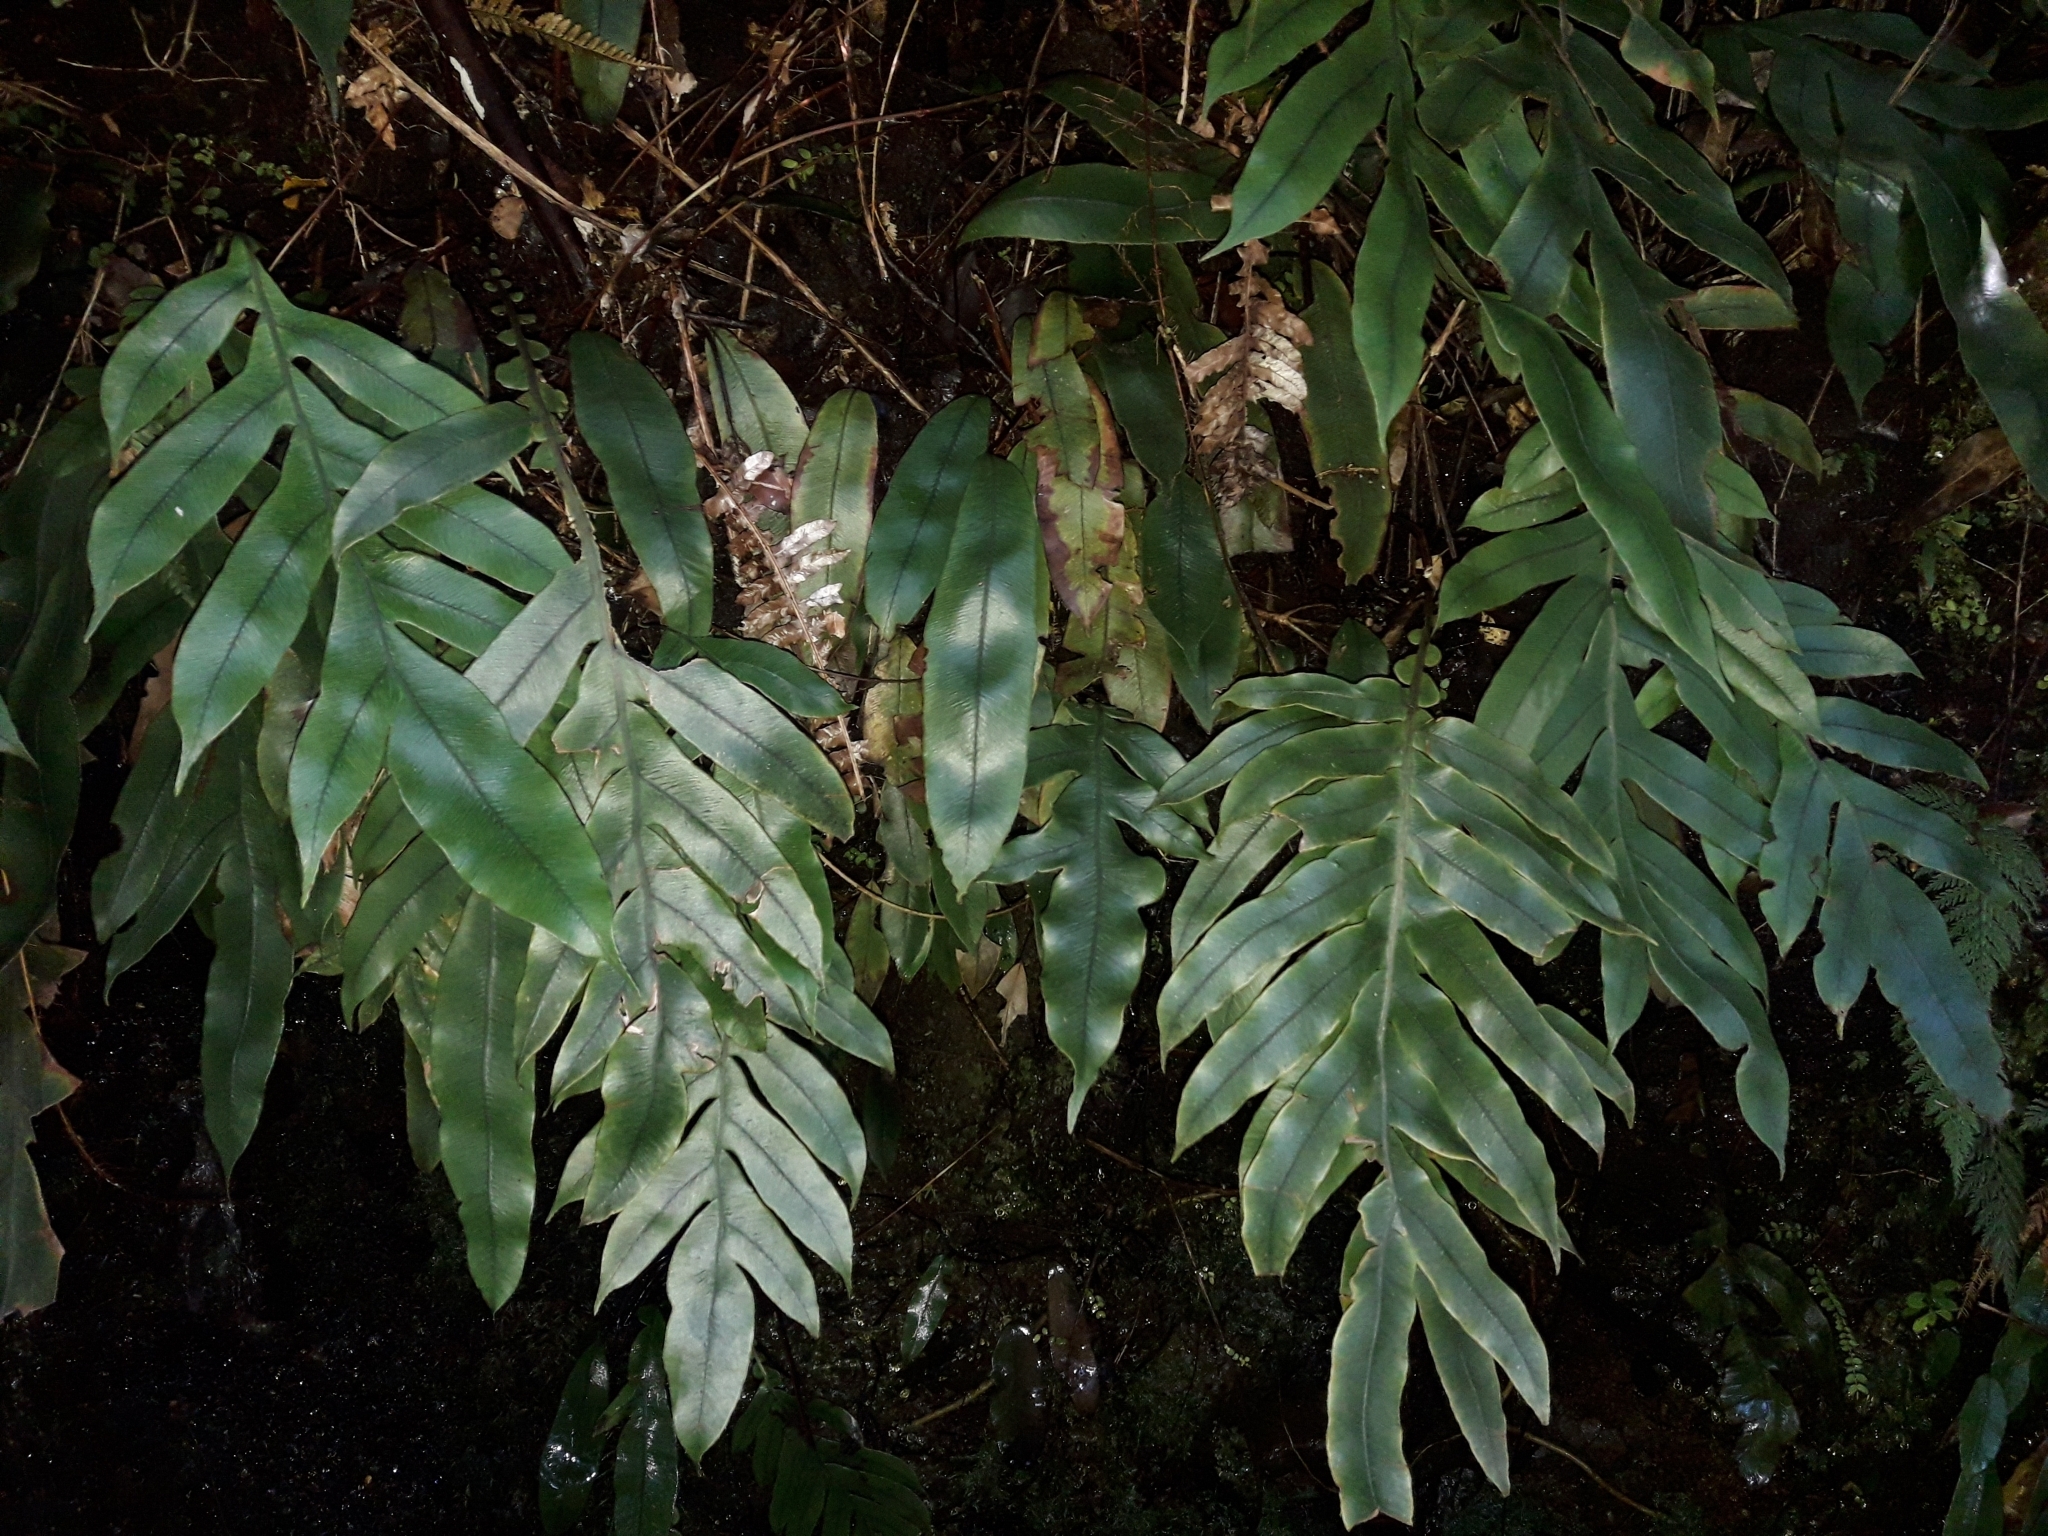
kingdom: Plantae
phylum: Tracheophyta
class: Polypodiopsida
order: Polypodiales
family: Blechnaceae
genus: Austroblechnum
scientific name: Austroblechnum colensoi
